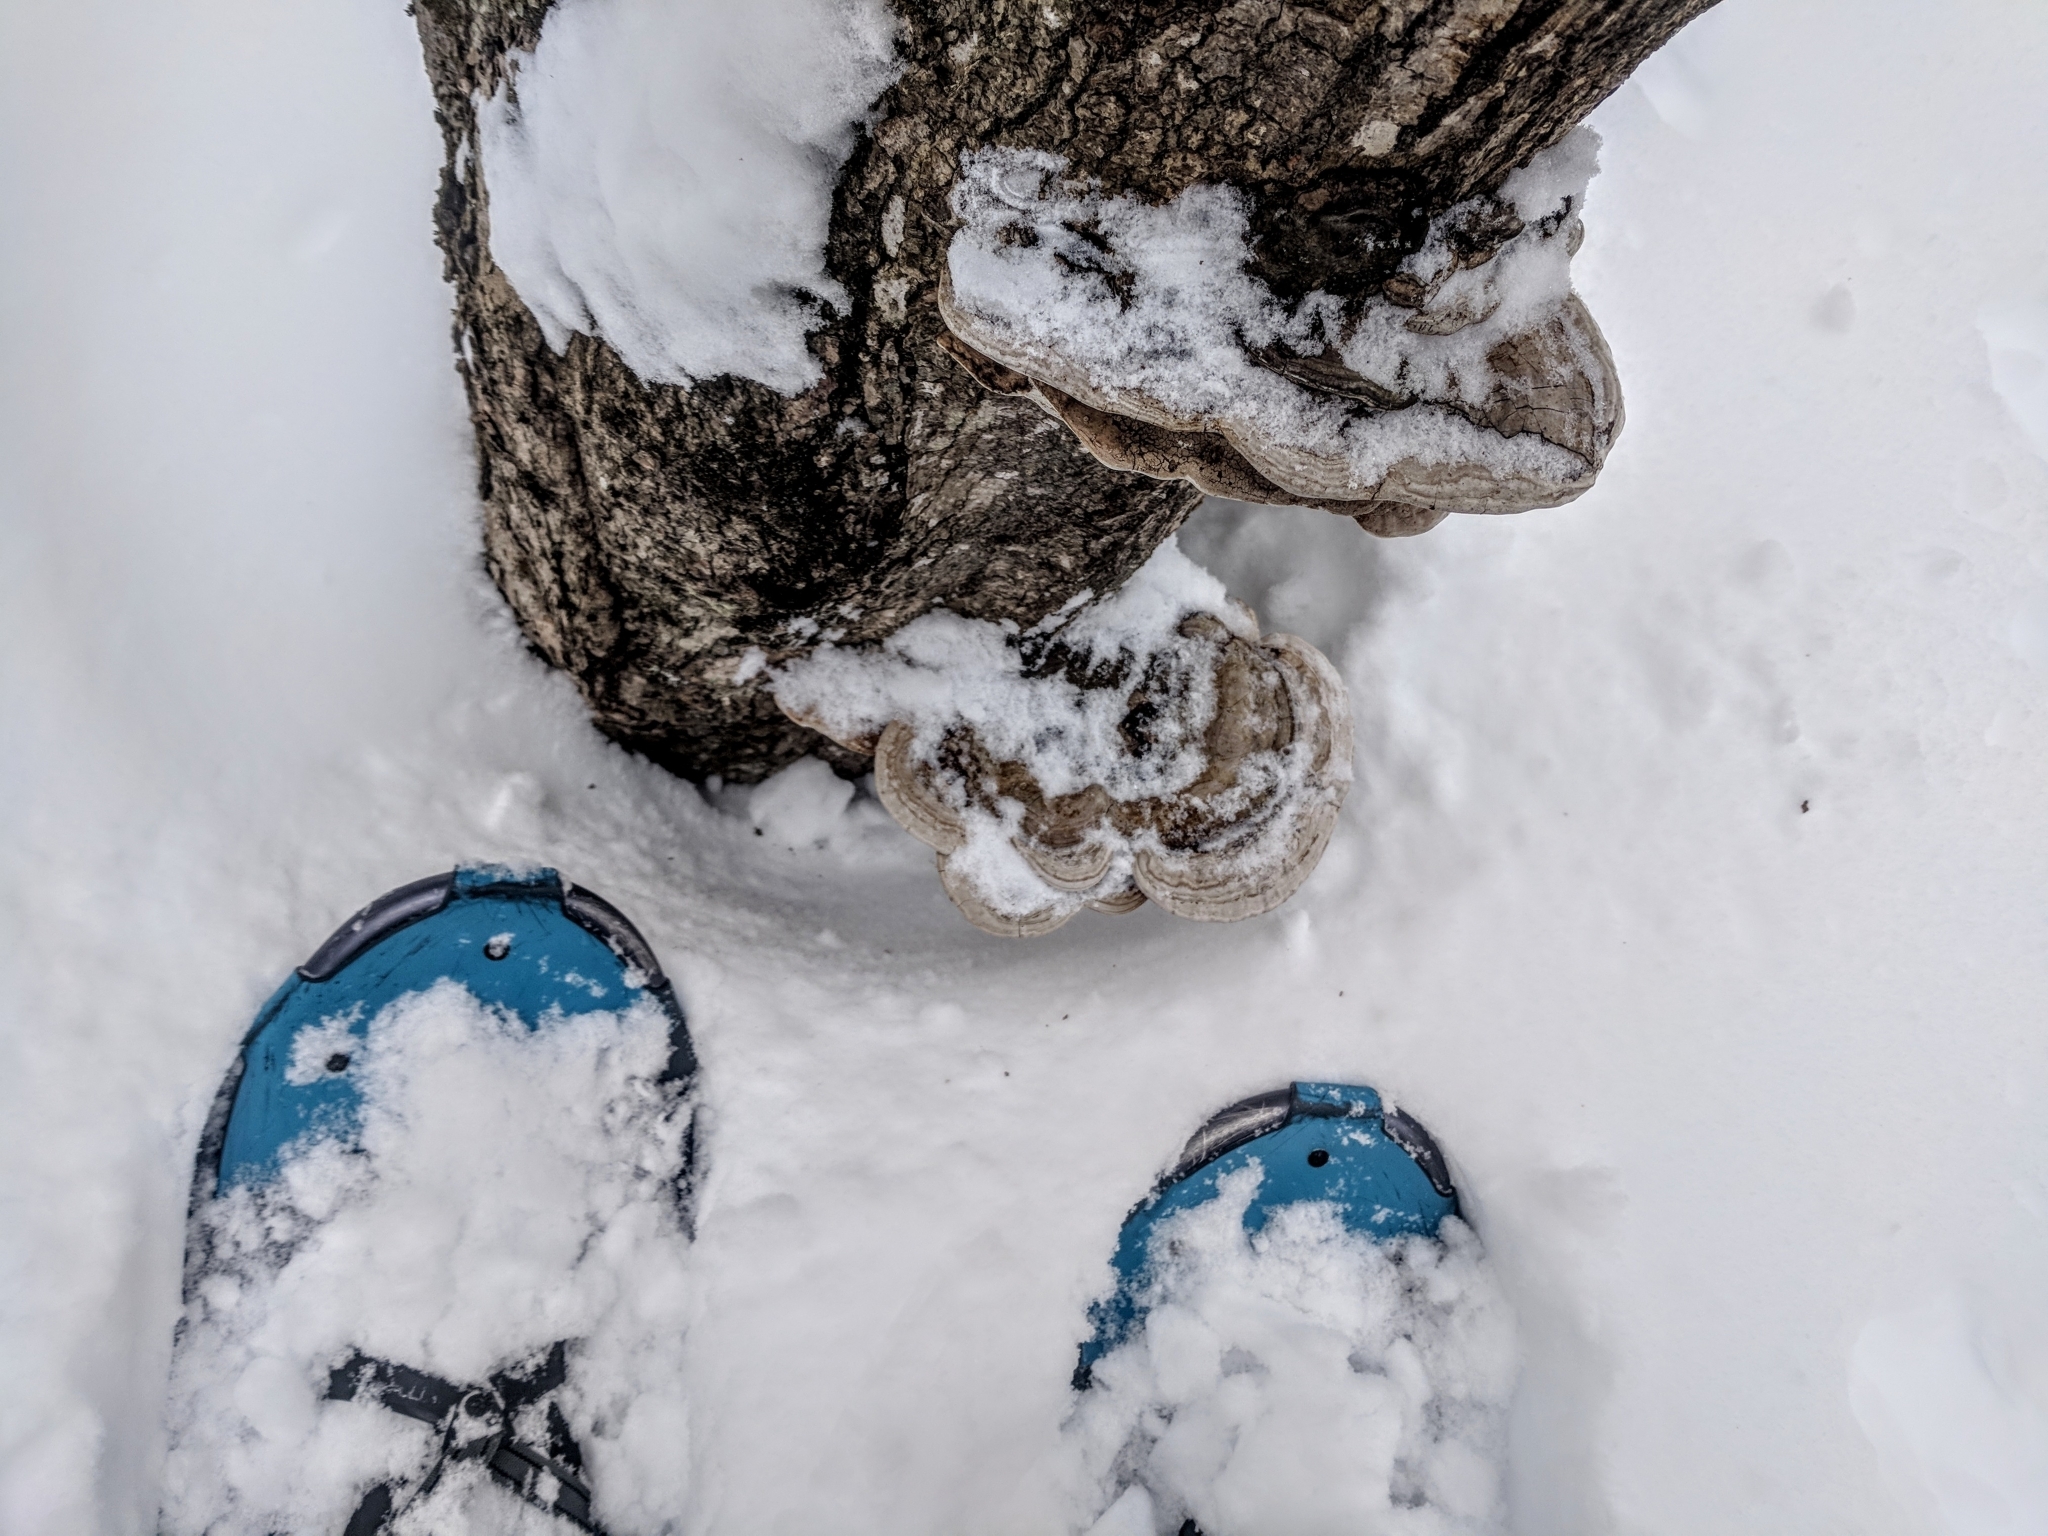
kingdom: Fungi
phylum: Basidiomycota
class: Agaricomycetes
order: Polyporales
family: Polyporaceae
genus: Fomes
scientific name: Fomes fomentarius
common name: Hoof fungus
